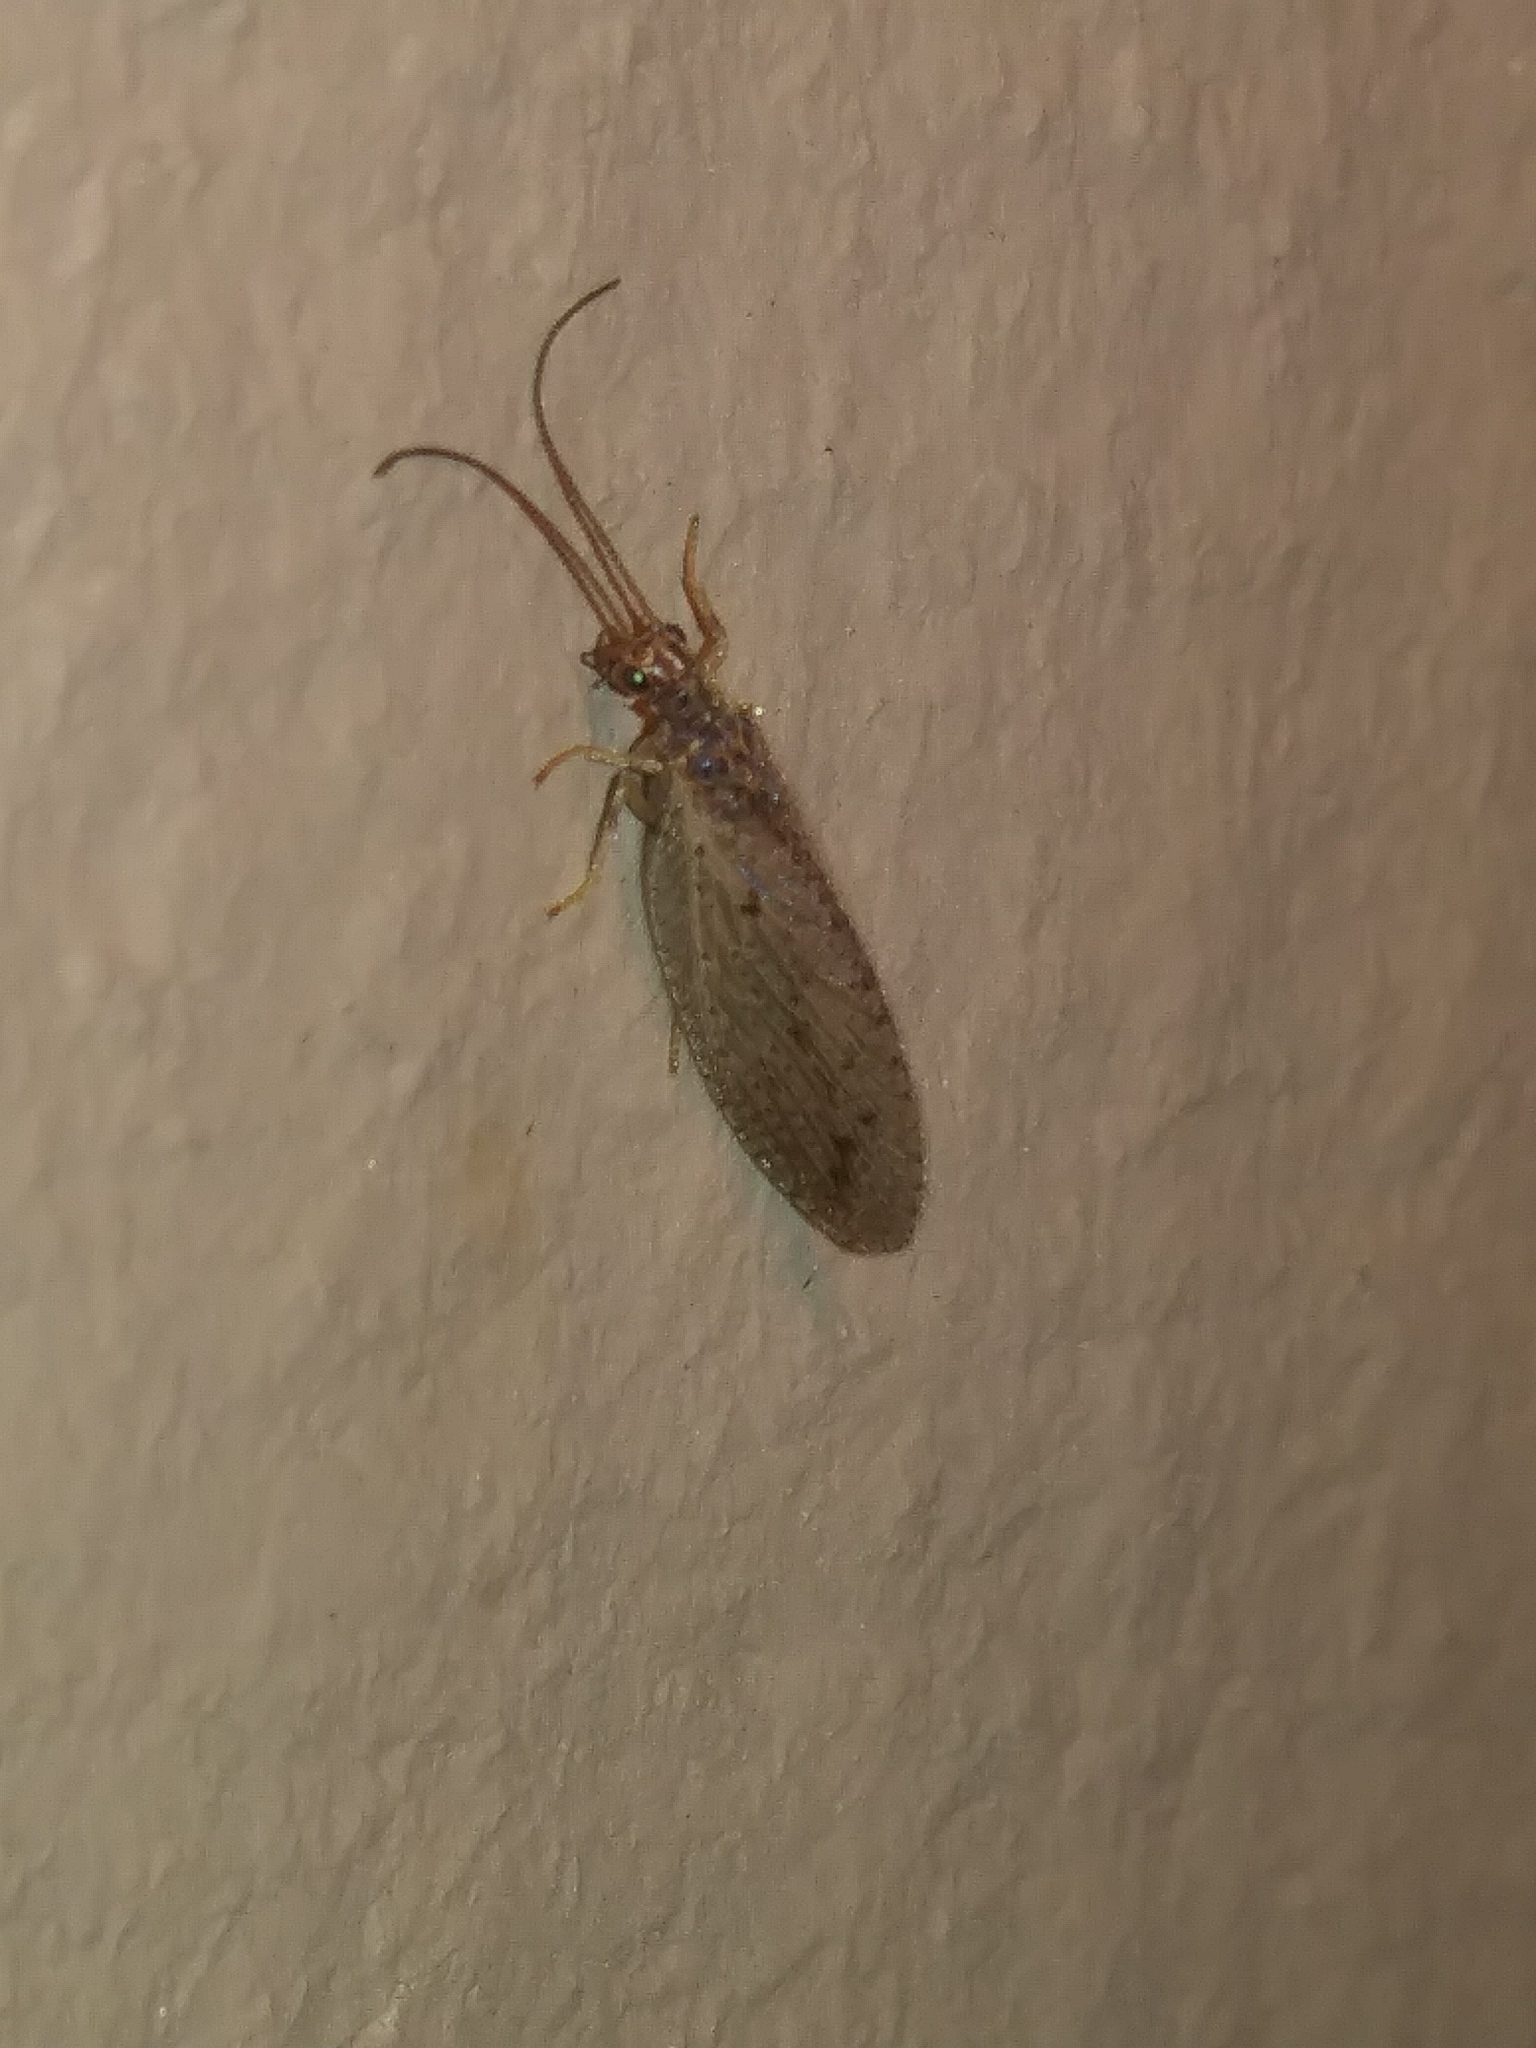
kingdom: Animalia
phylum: Arthropoda
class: Insecta
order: Neuroptera
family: Hemerobiidae
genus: Micromus
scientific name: Micromus subanticus
